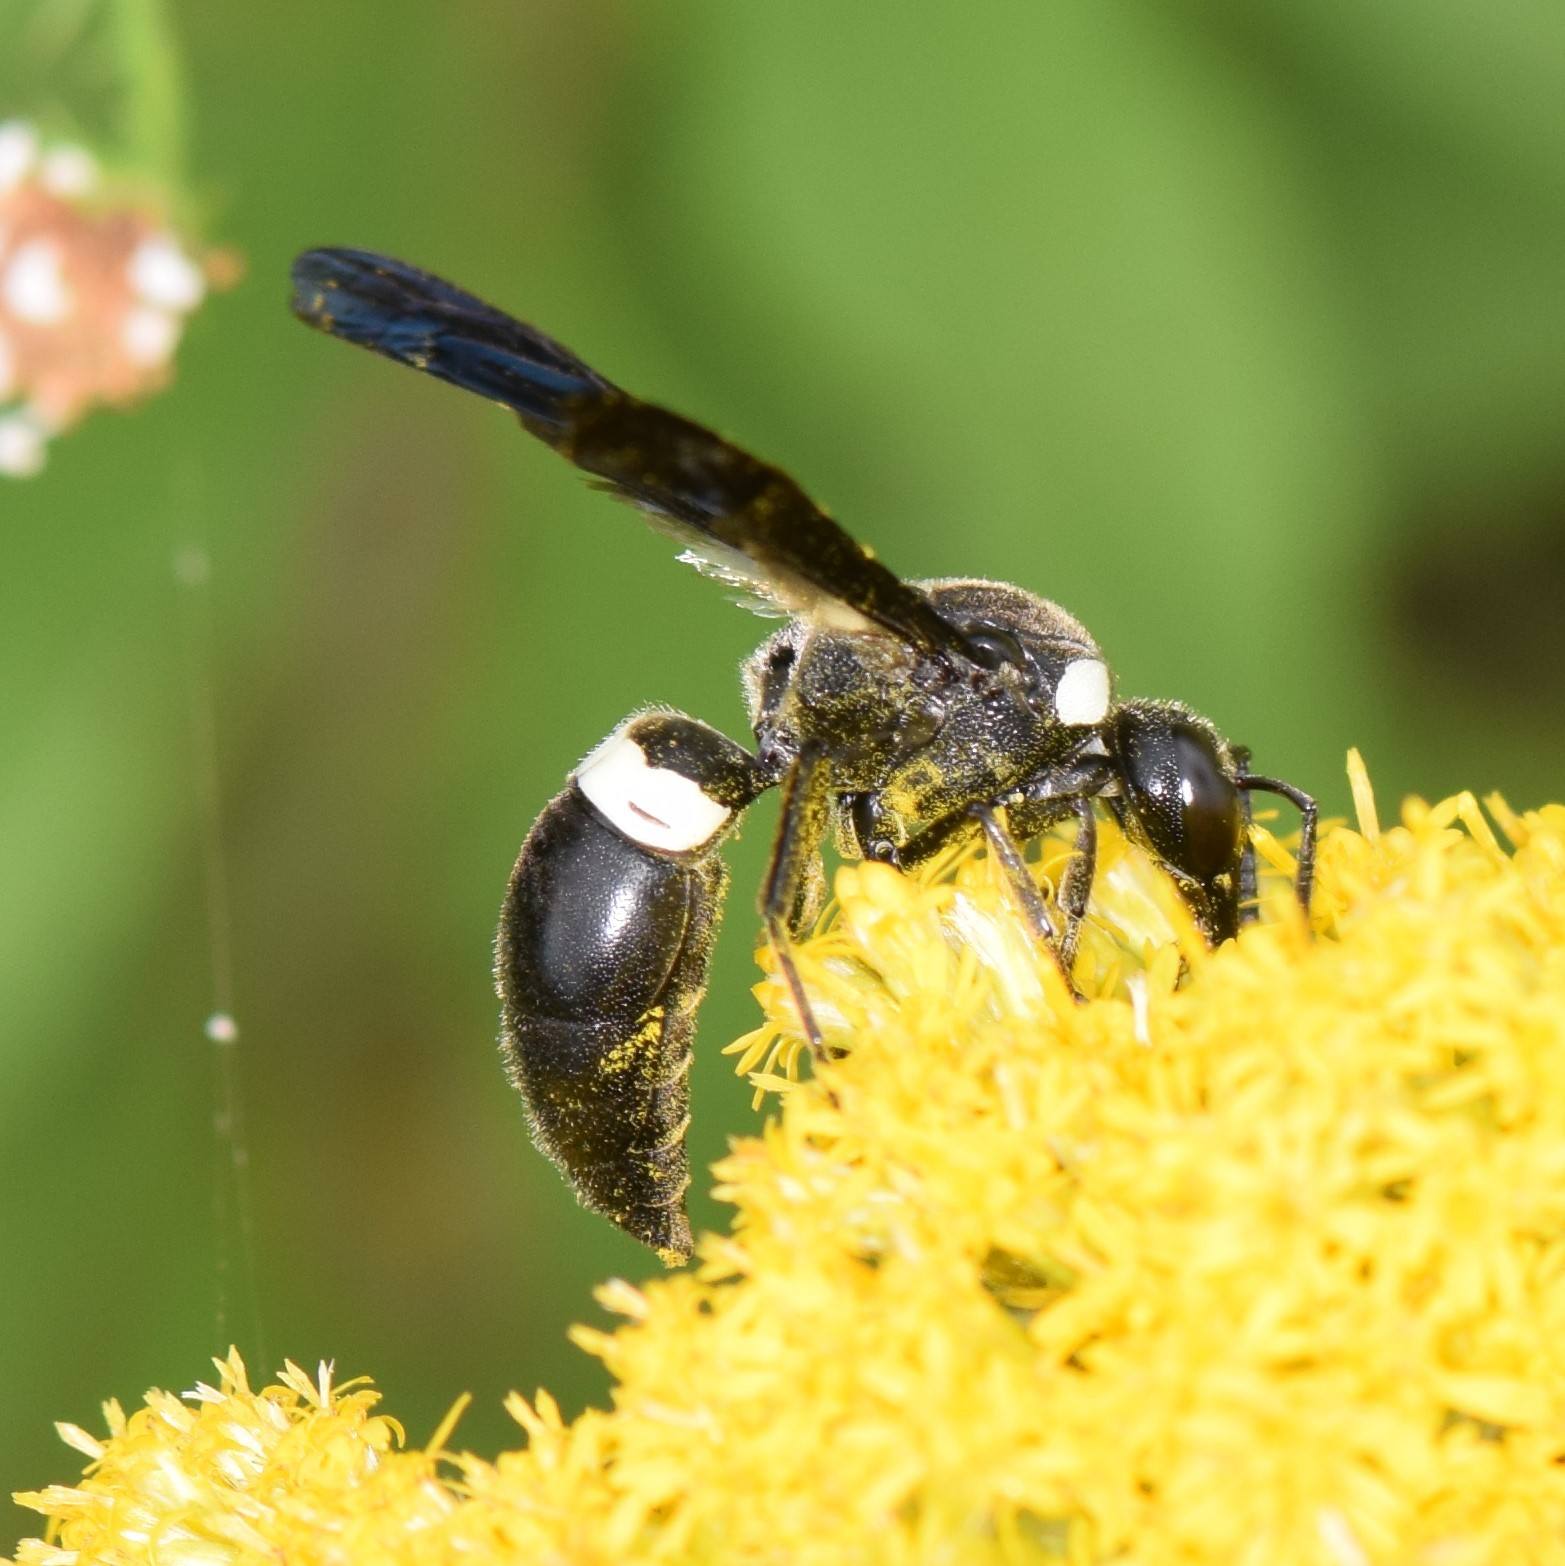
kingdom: Animalia
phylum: Arthropoda
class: Insecta
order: Hymenoptera
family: Eumenidae
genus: Monobia
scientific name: Monobia quadridens
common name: Four-toothed mason wasp
